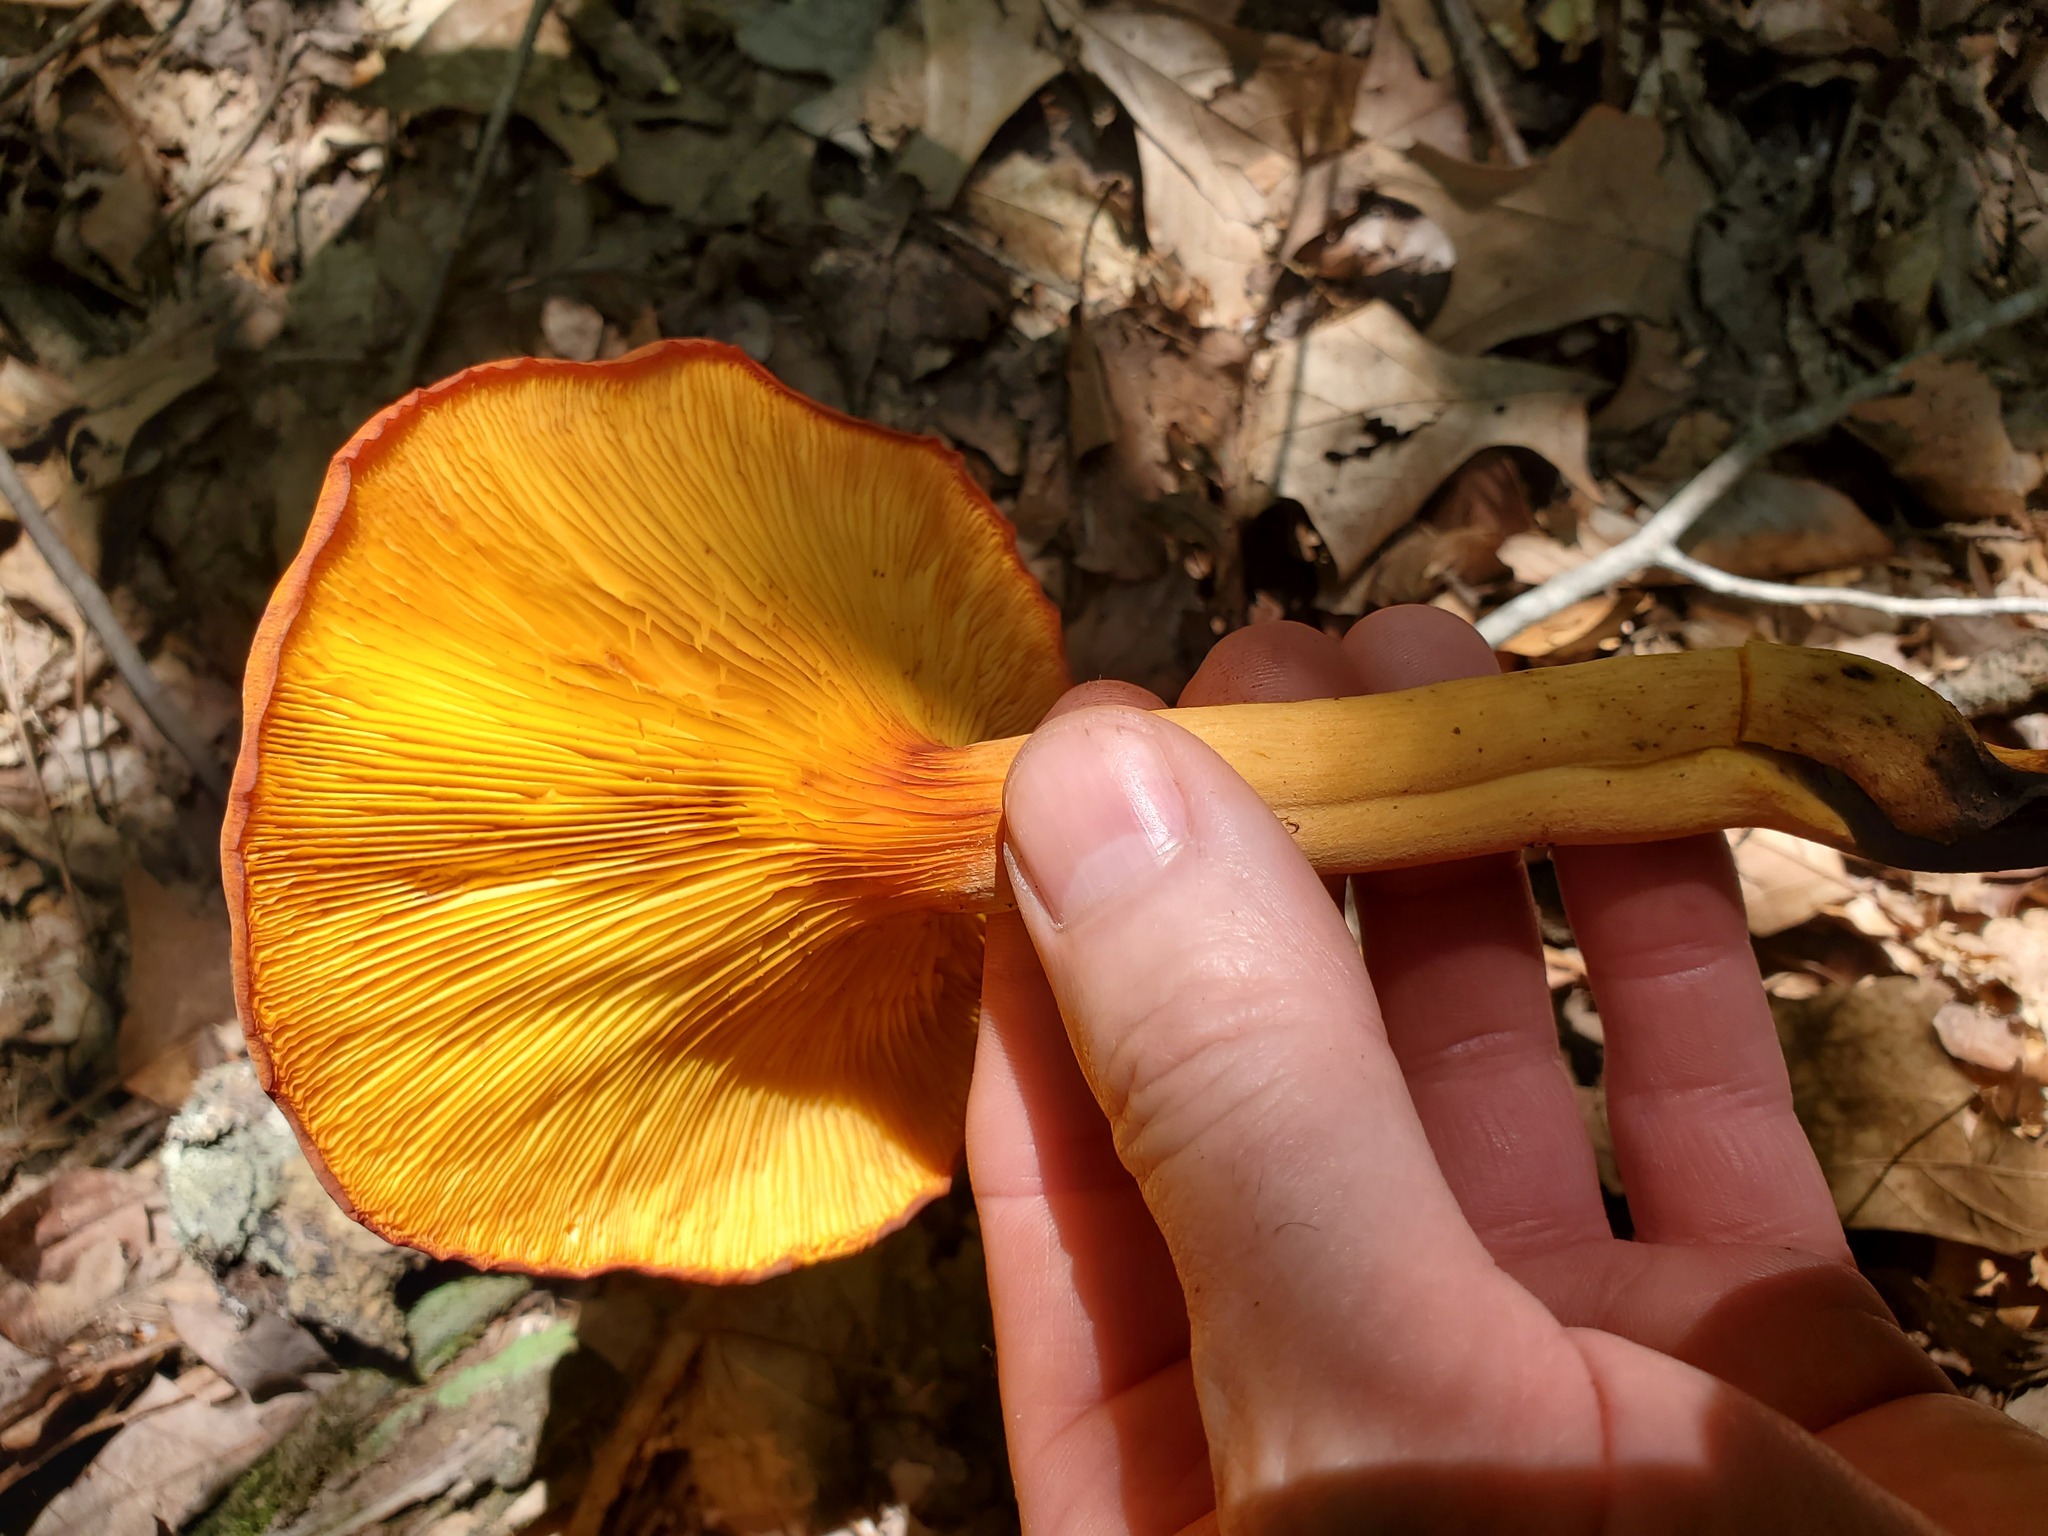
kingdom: Fungi
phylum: Basidiomycota
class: Agaricomycetes
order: Agaricales
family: Omphalotaceae
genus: Omphalotus
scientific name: Omphalotus illudens
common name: Jack o lantern
